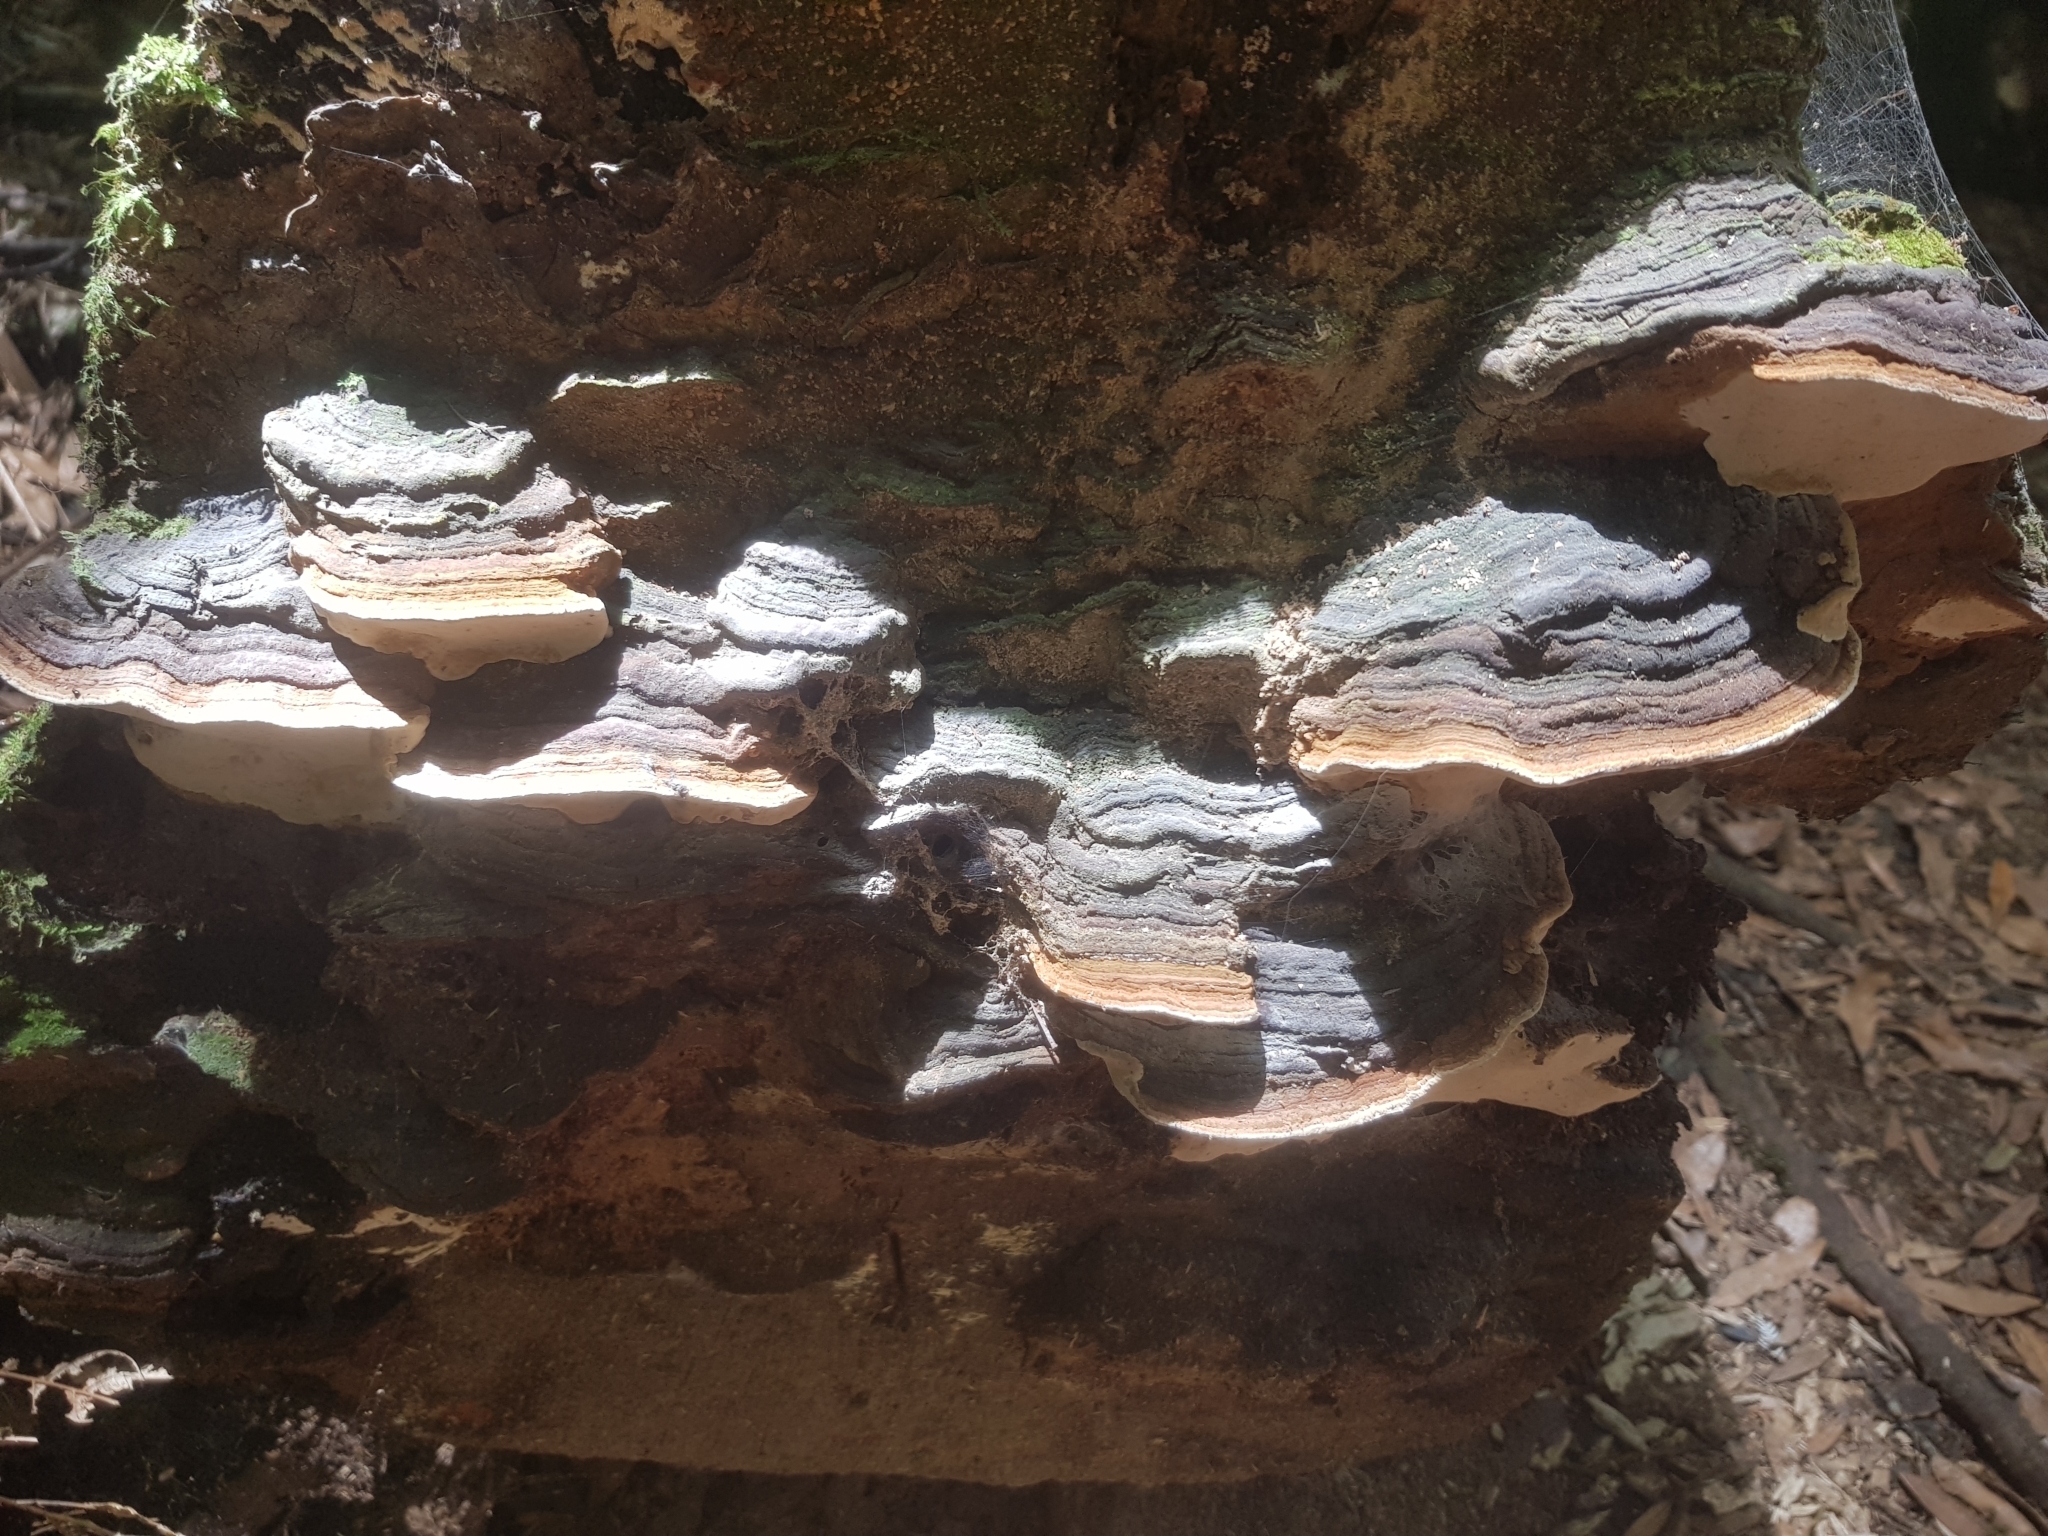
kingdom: Fungi
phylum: Basidiomycota
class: Agaricomycetes
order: Polyporales
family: Polyporaceae
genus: Australoporus
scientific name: Australoporus tasmanicus
